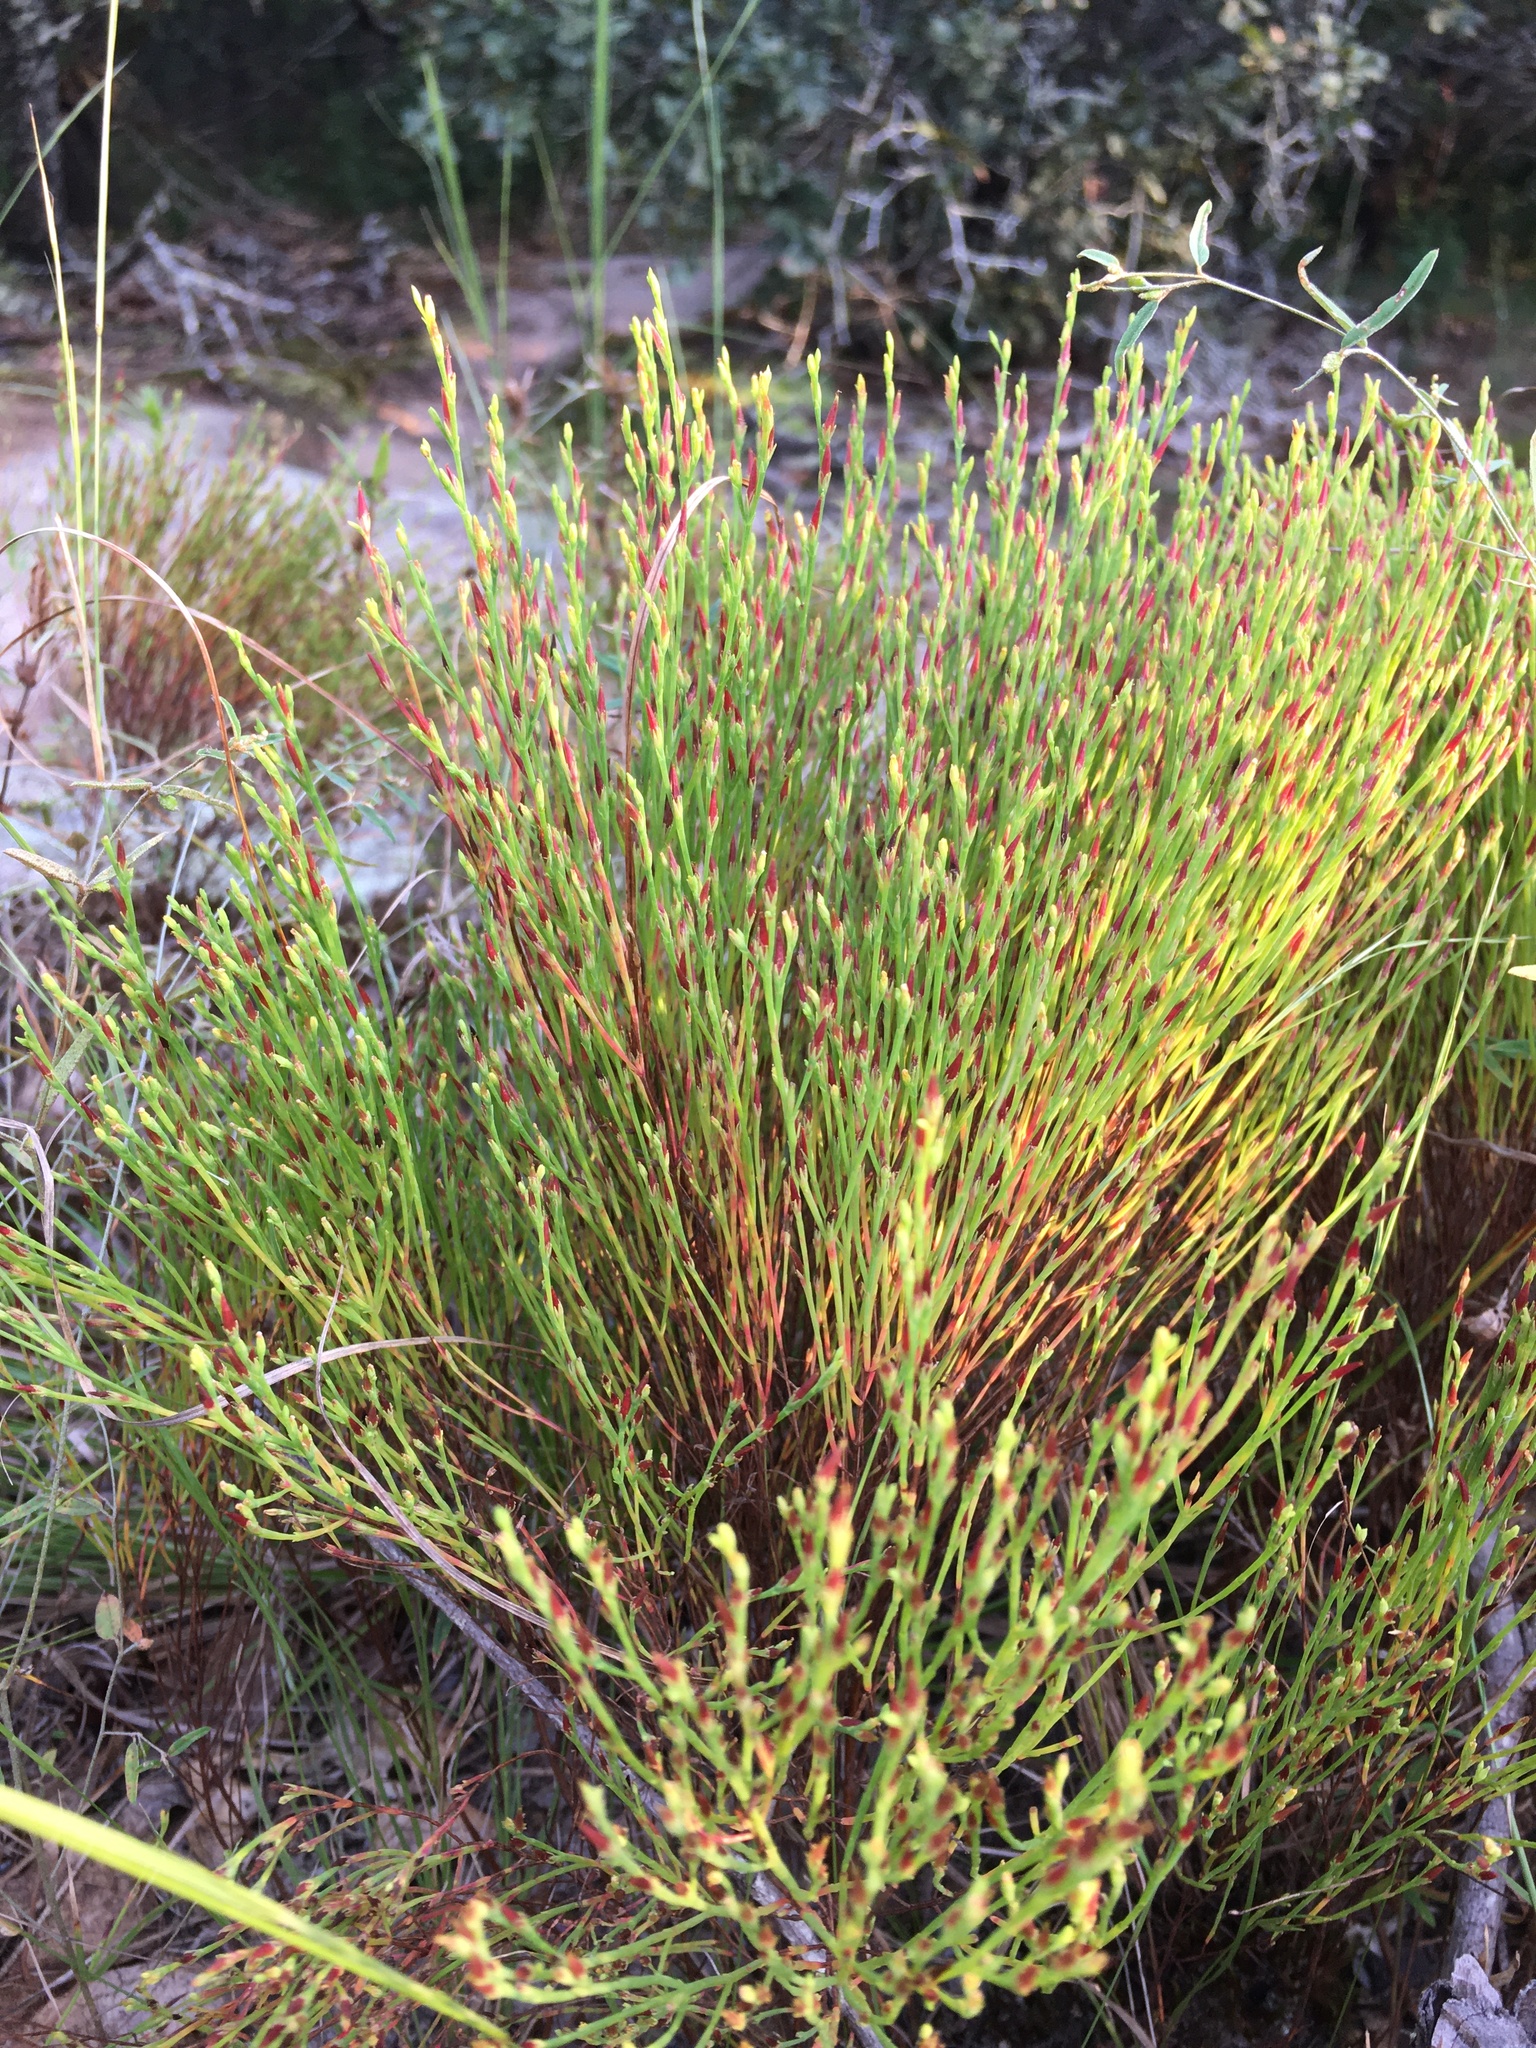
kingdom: Plantae
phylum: Tracheophyta
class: Magnoliopsida
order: Malpighiales
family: Hypericaceae
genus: Hypericum
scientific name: Hypericum gentianoides
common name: Gentian-leaved st. john's-wort
